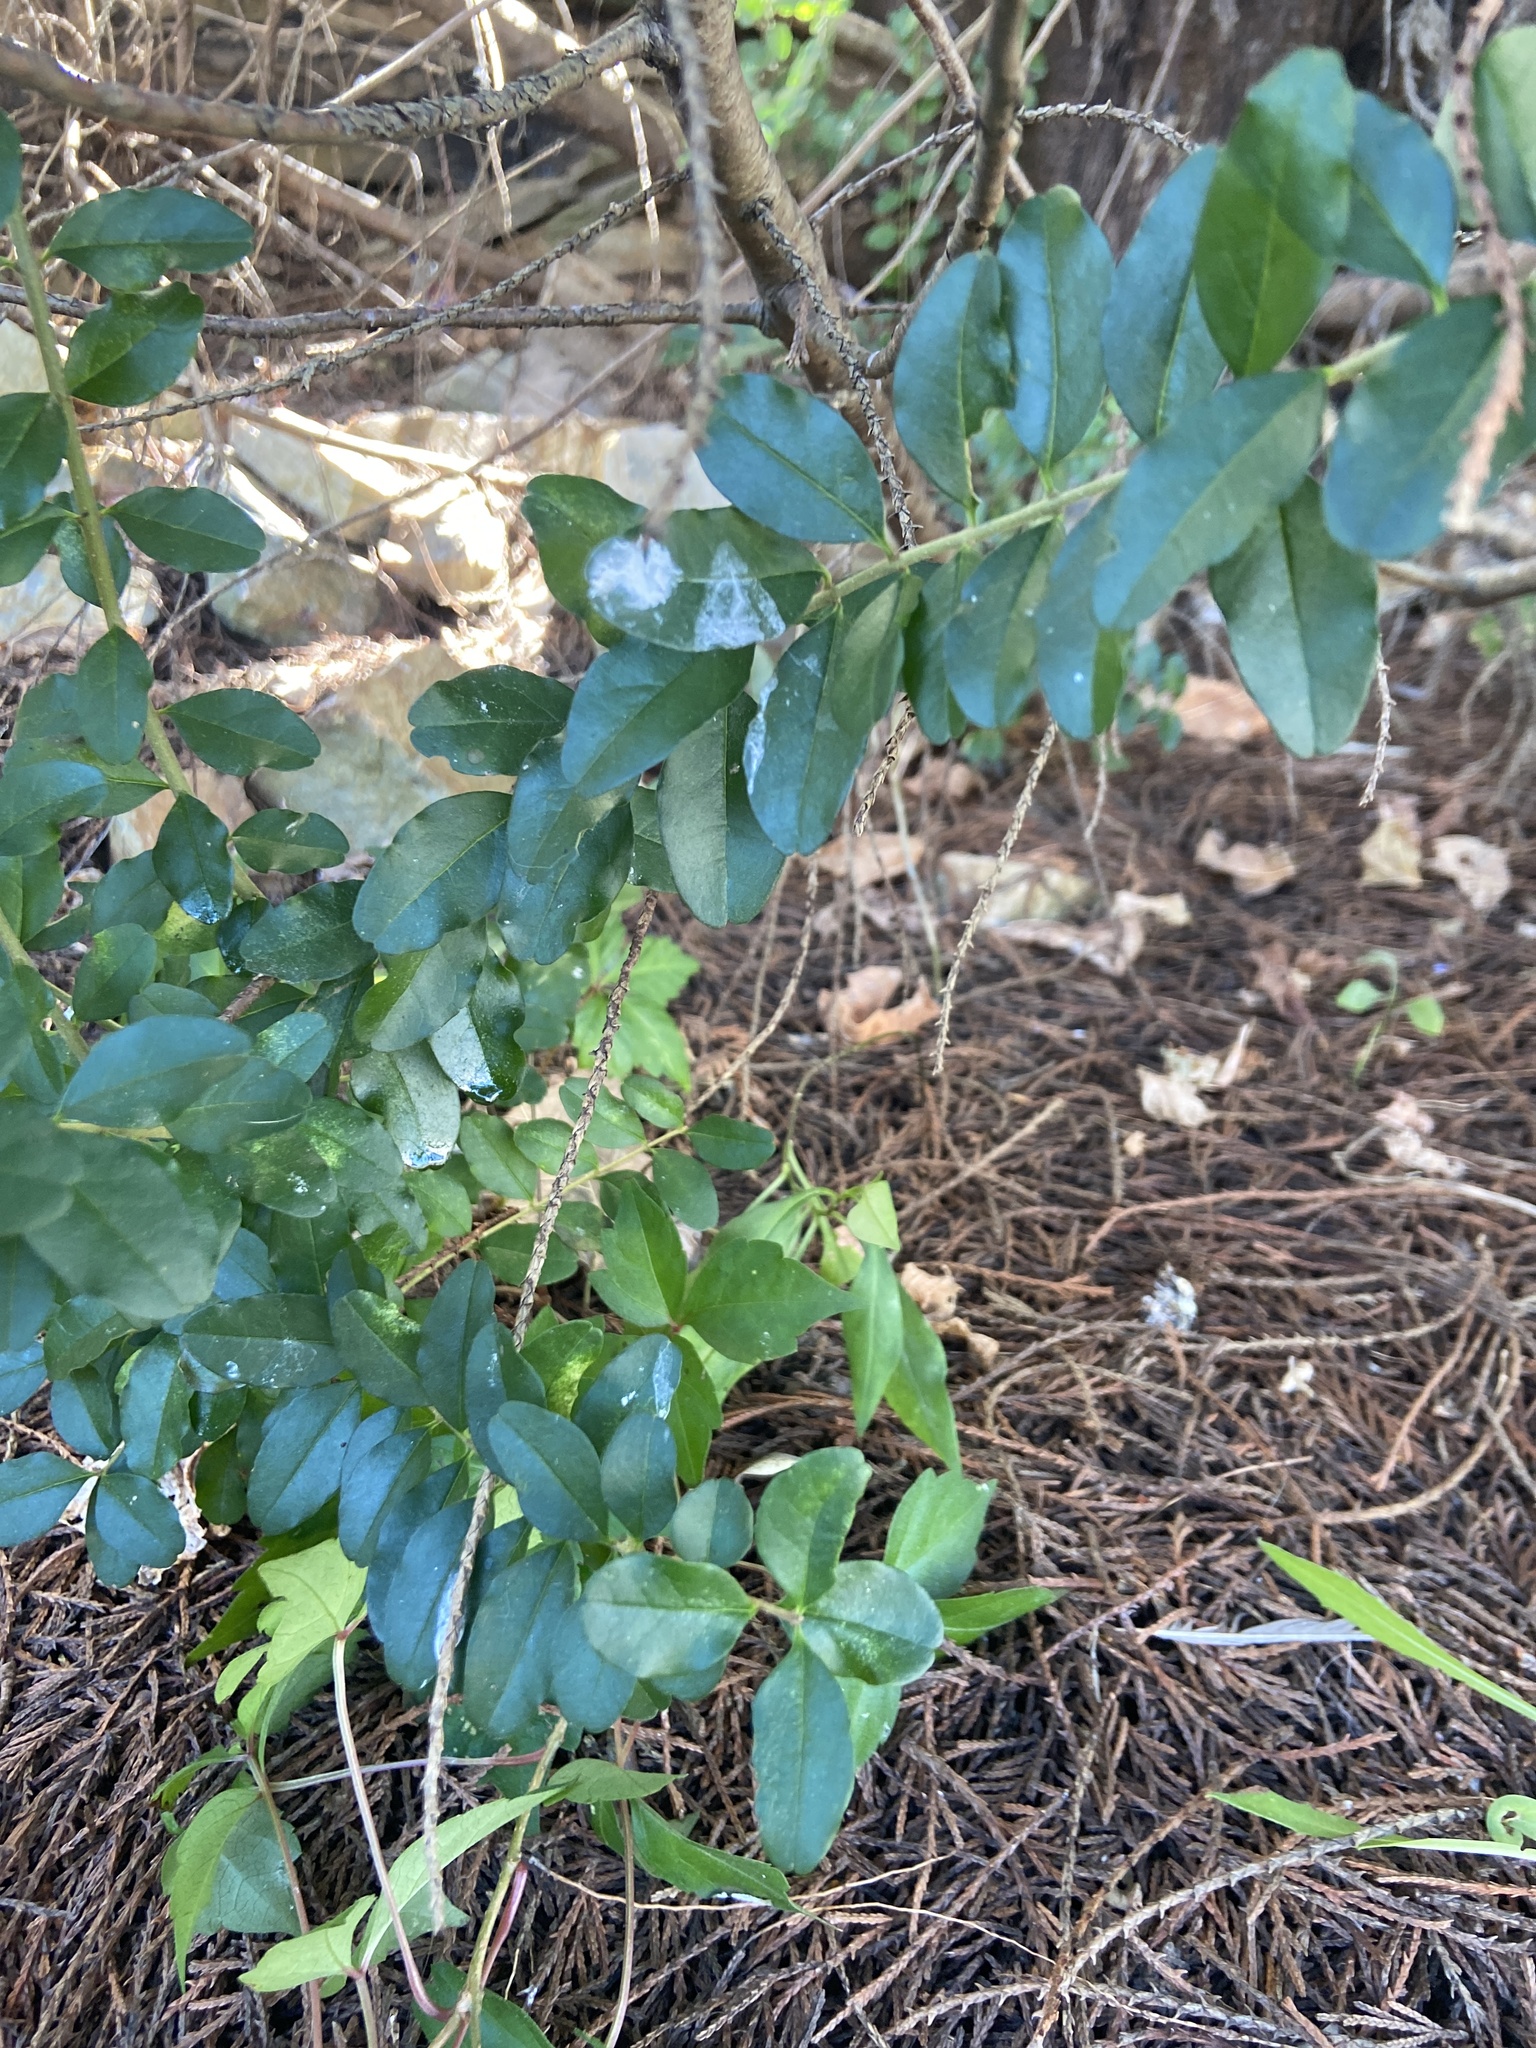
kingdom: Plantae
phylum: Tracheophyta
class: Magnoliopsida
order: Lamiales
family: Oleaceae
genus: Ligustrum
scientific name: Ligustrum sinense
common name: Chinese privet
